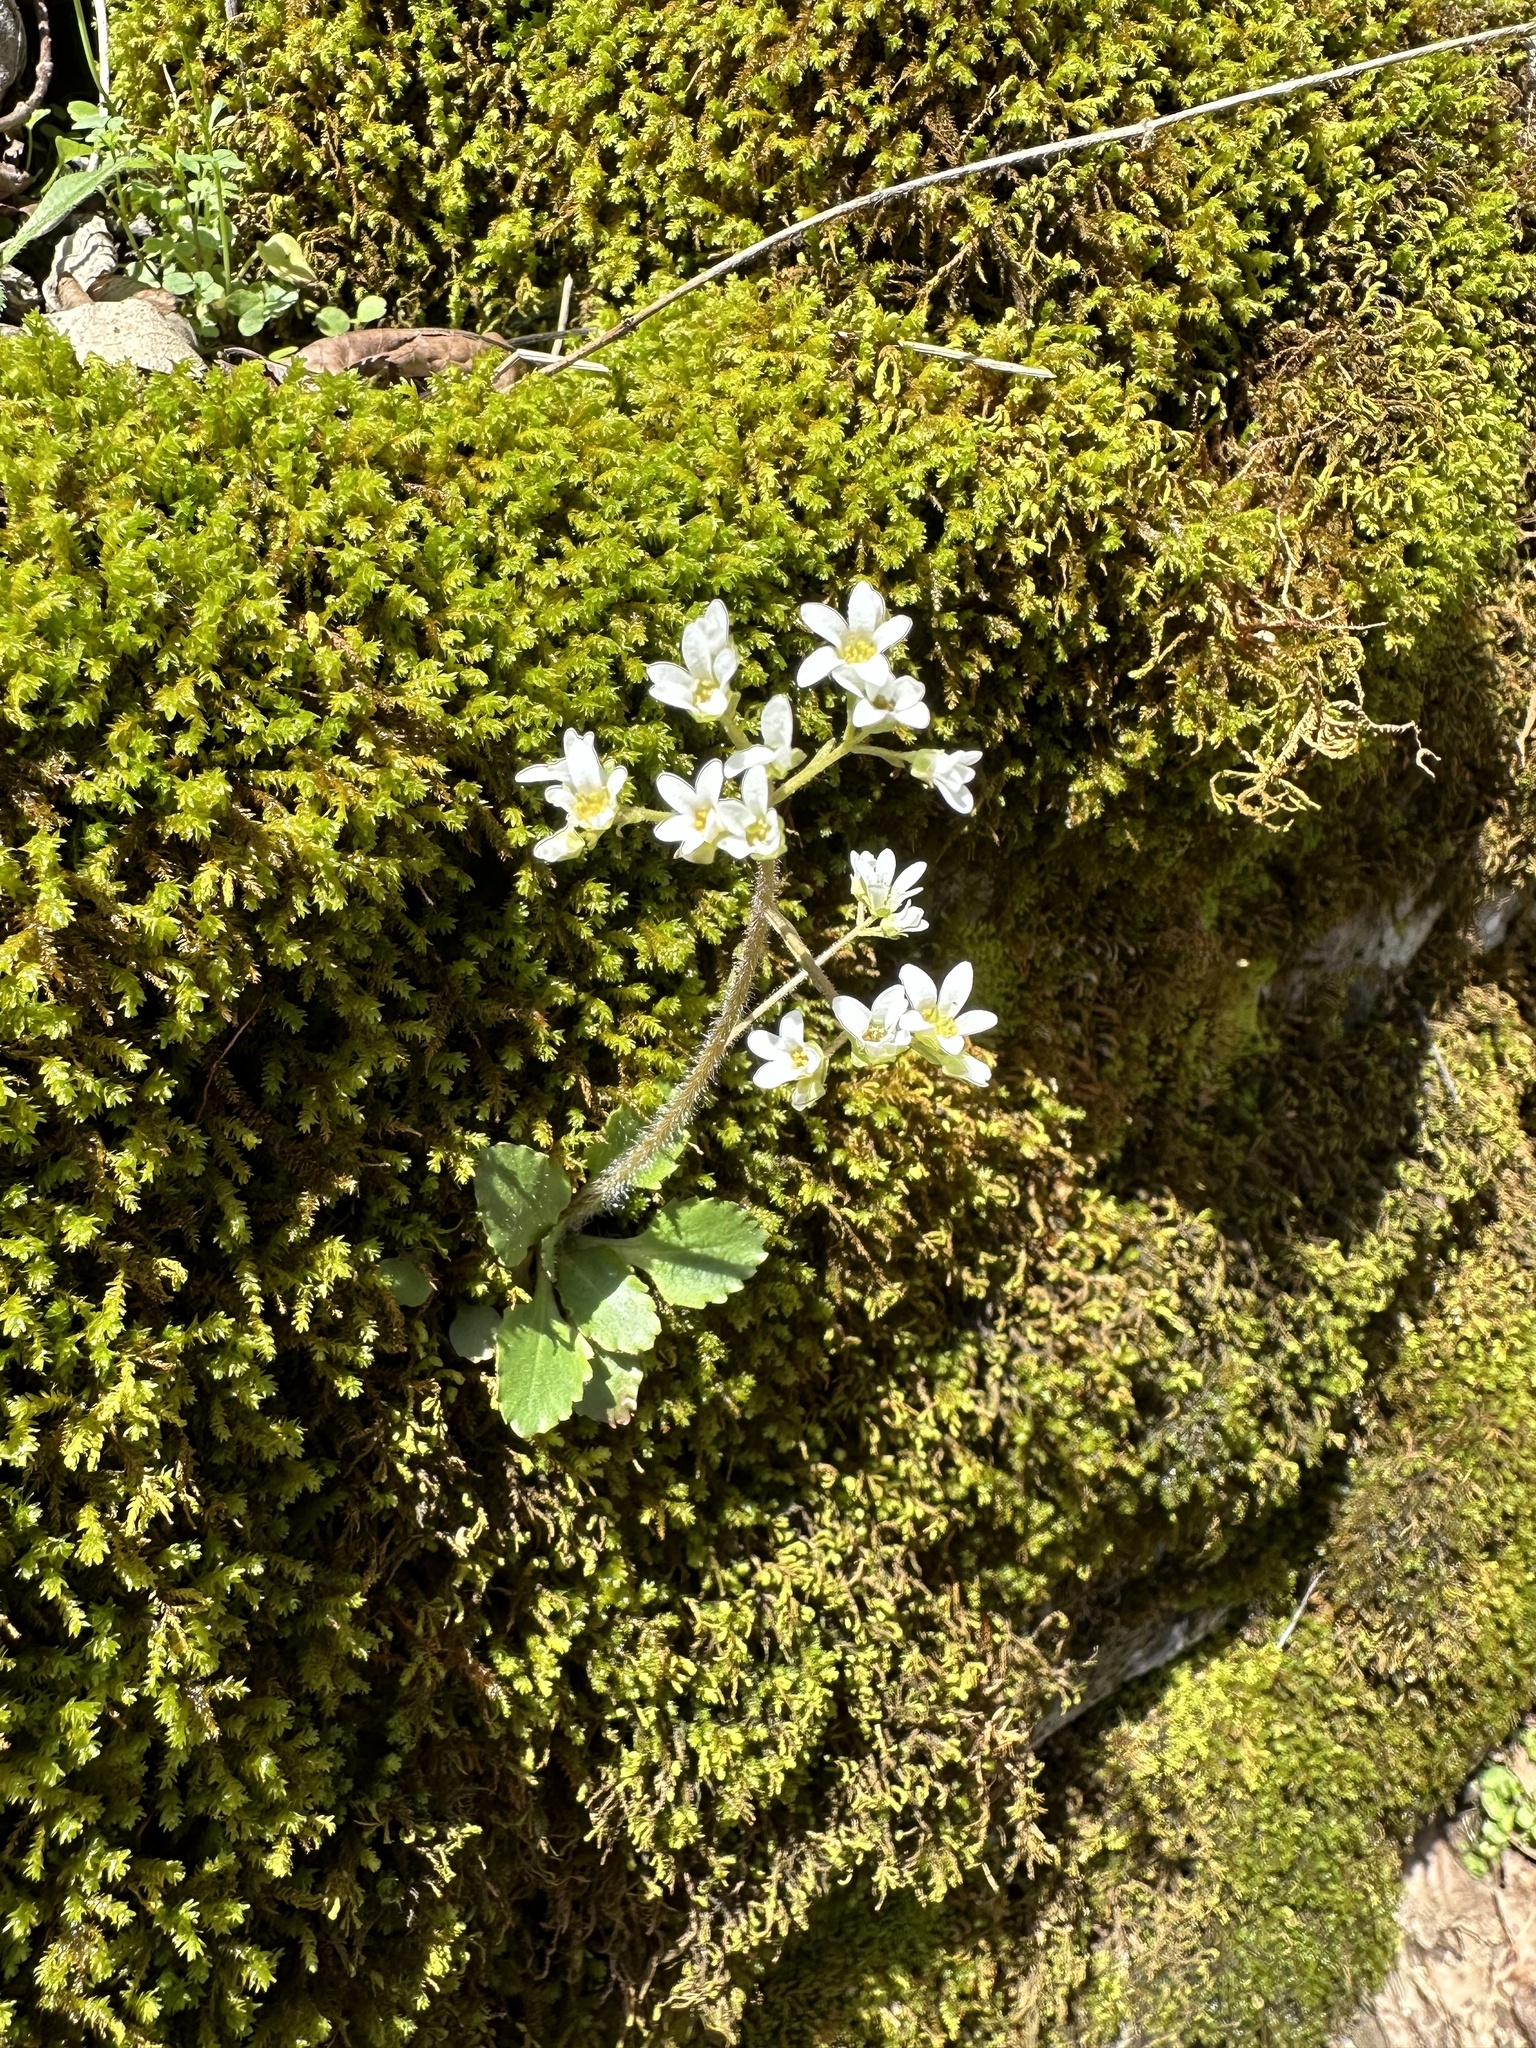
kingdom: Plantae
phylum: Tracheophyta
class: Magnoliopsida
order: Saxifragales
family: Saxifragaceae
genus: Micranthes
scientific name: Micranthes virginiensis
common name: Early saxifrage
